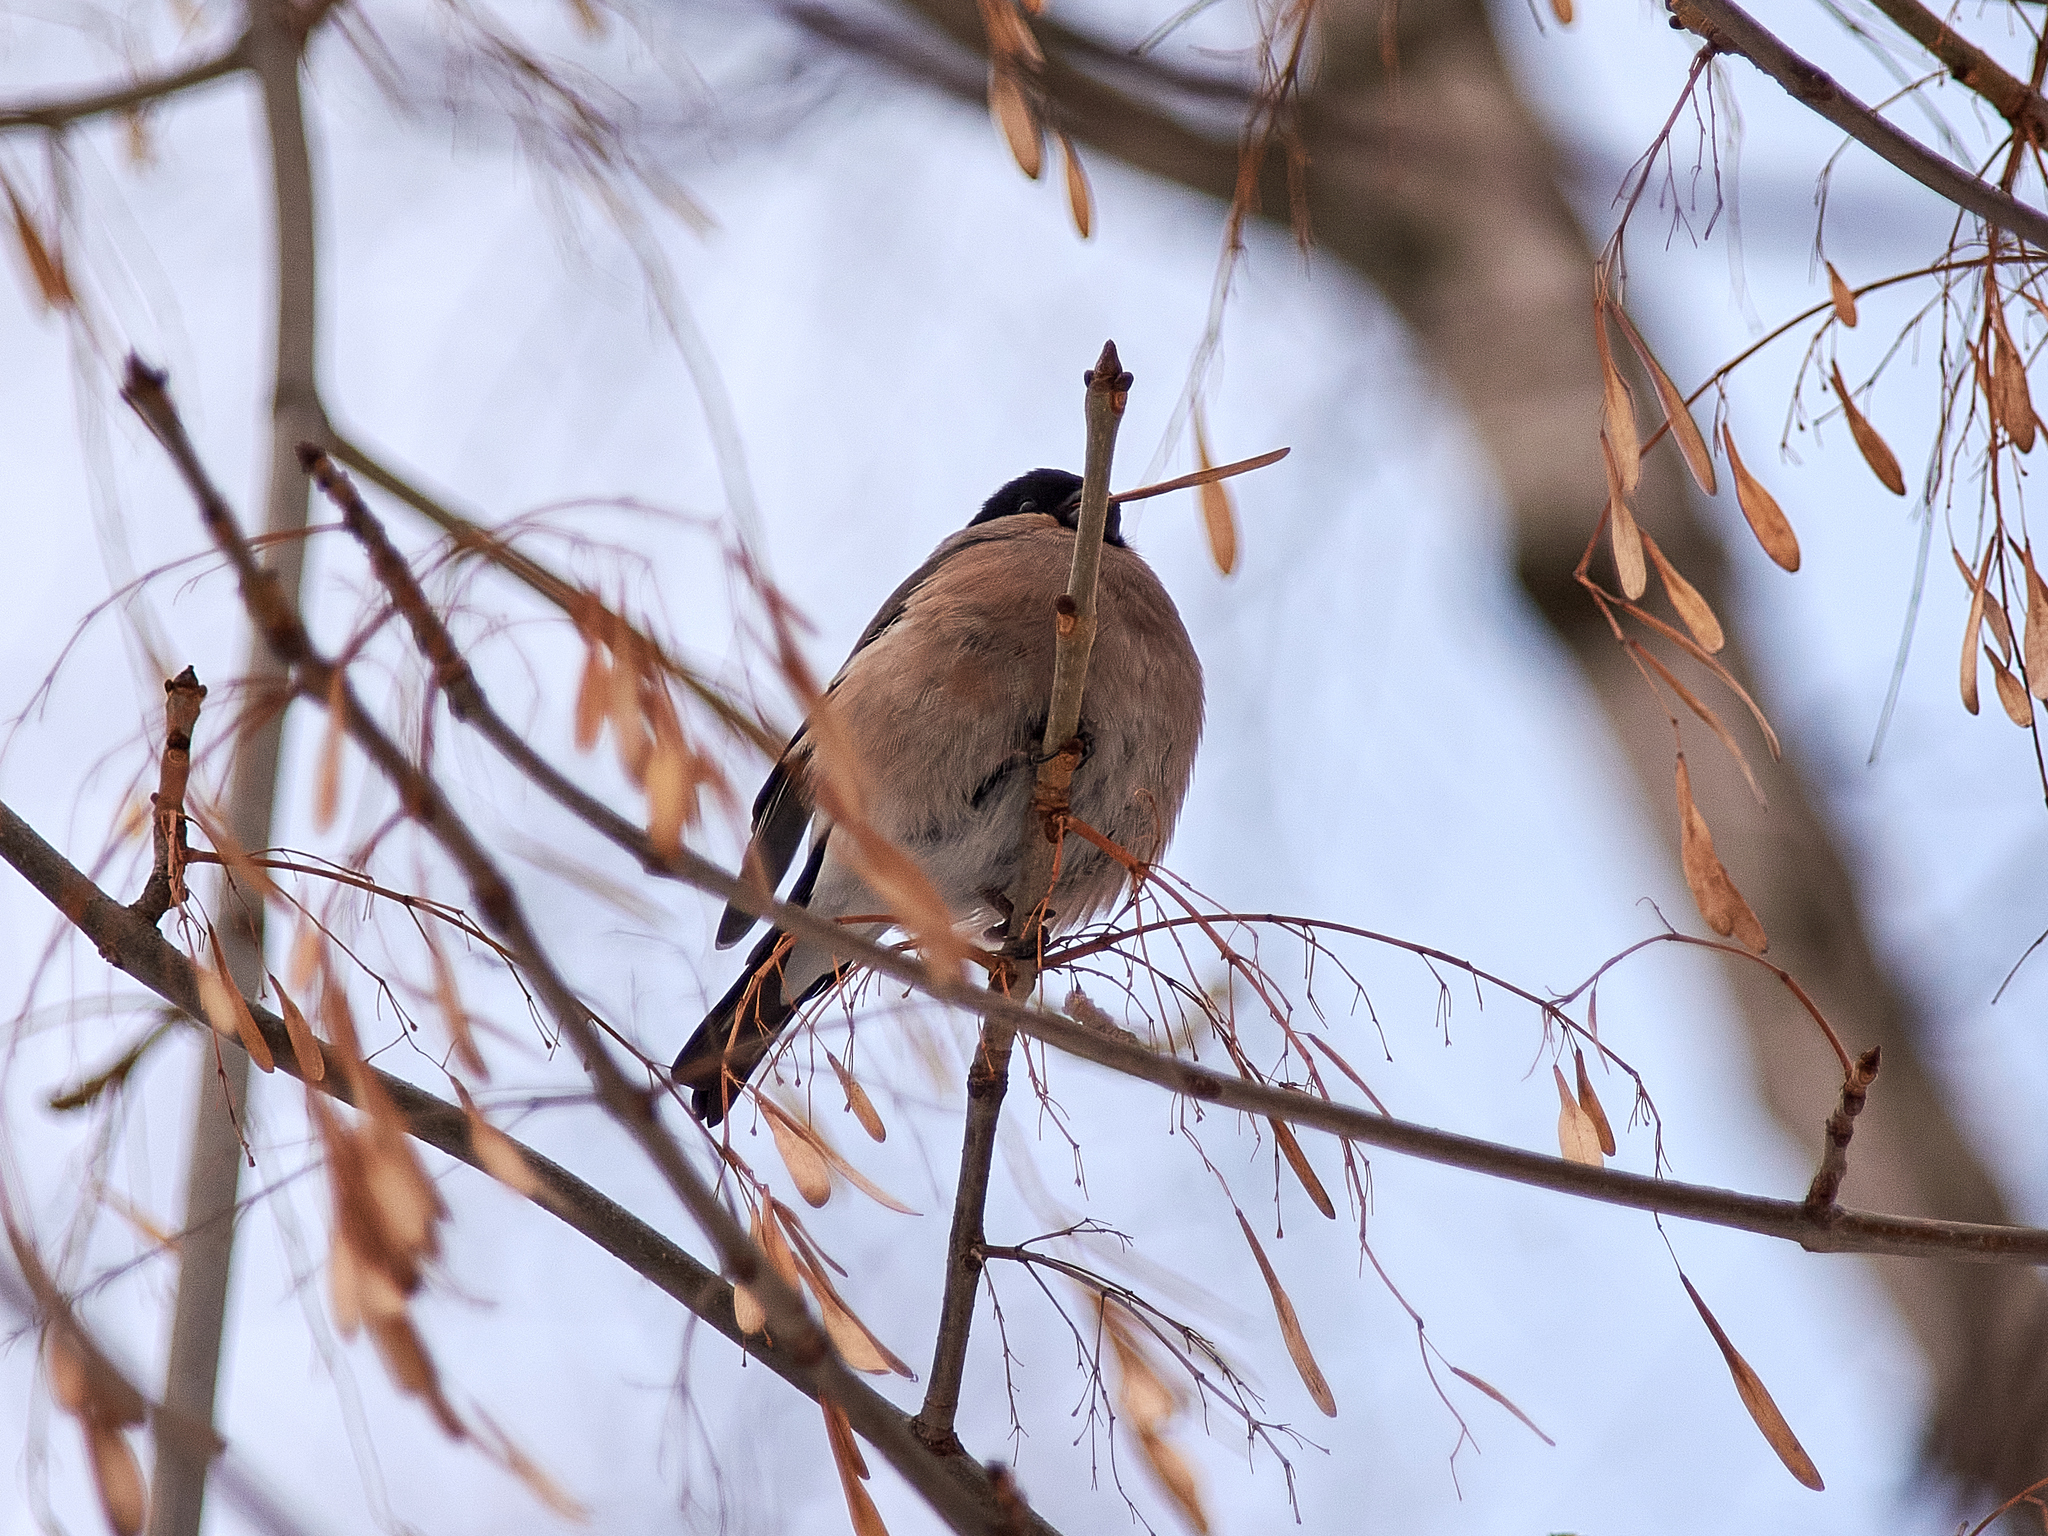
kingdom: Animalia
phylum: Chordata
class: Aves
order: Passeriformes
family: Fringillidae
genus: Pyrrhula
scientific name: Pyrrhula pyrrhula
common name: Eurasian bullfinch
